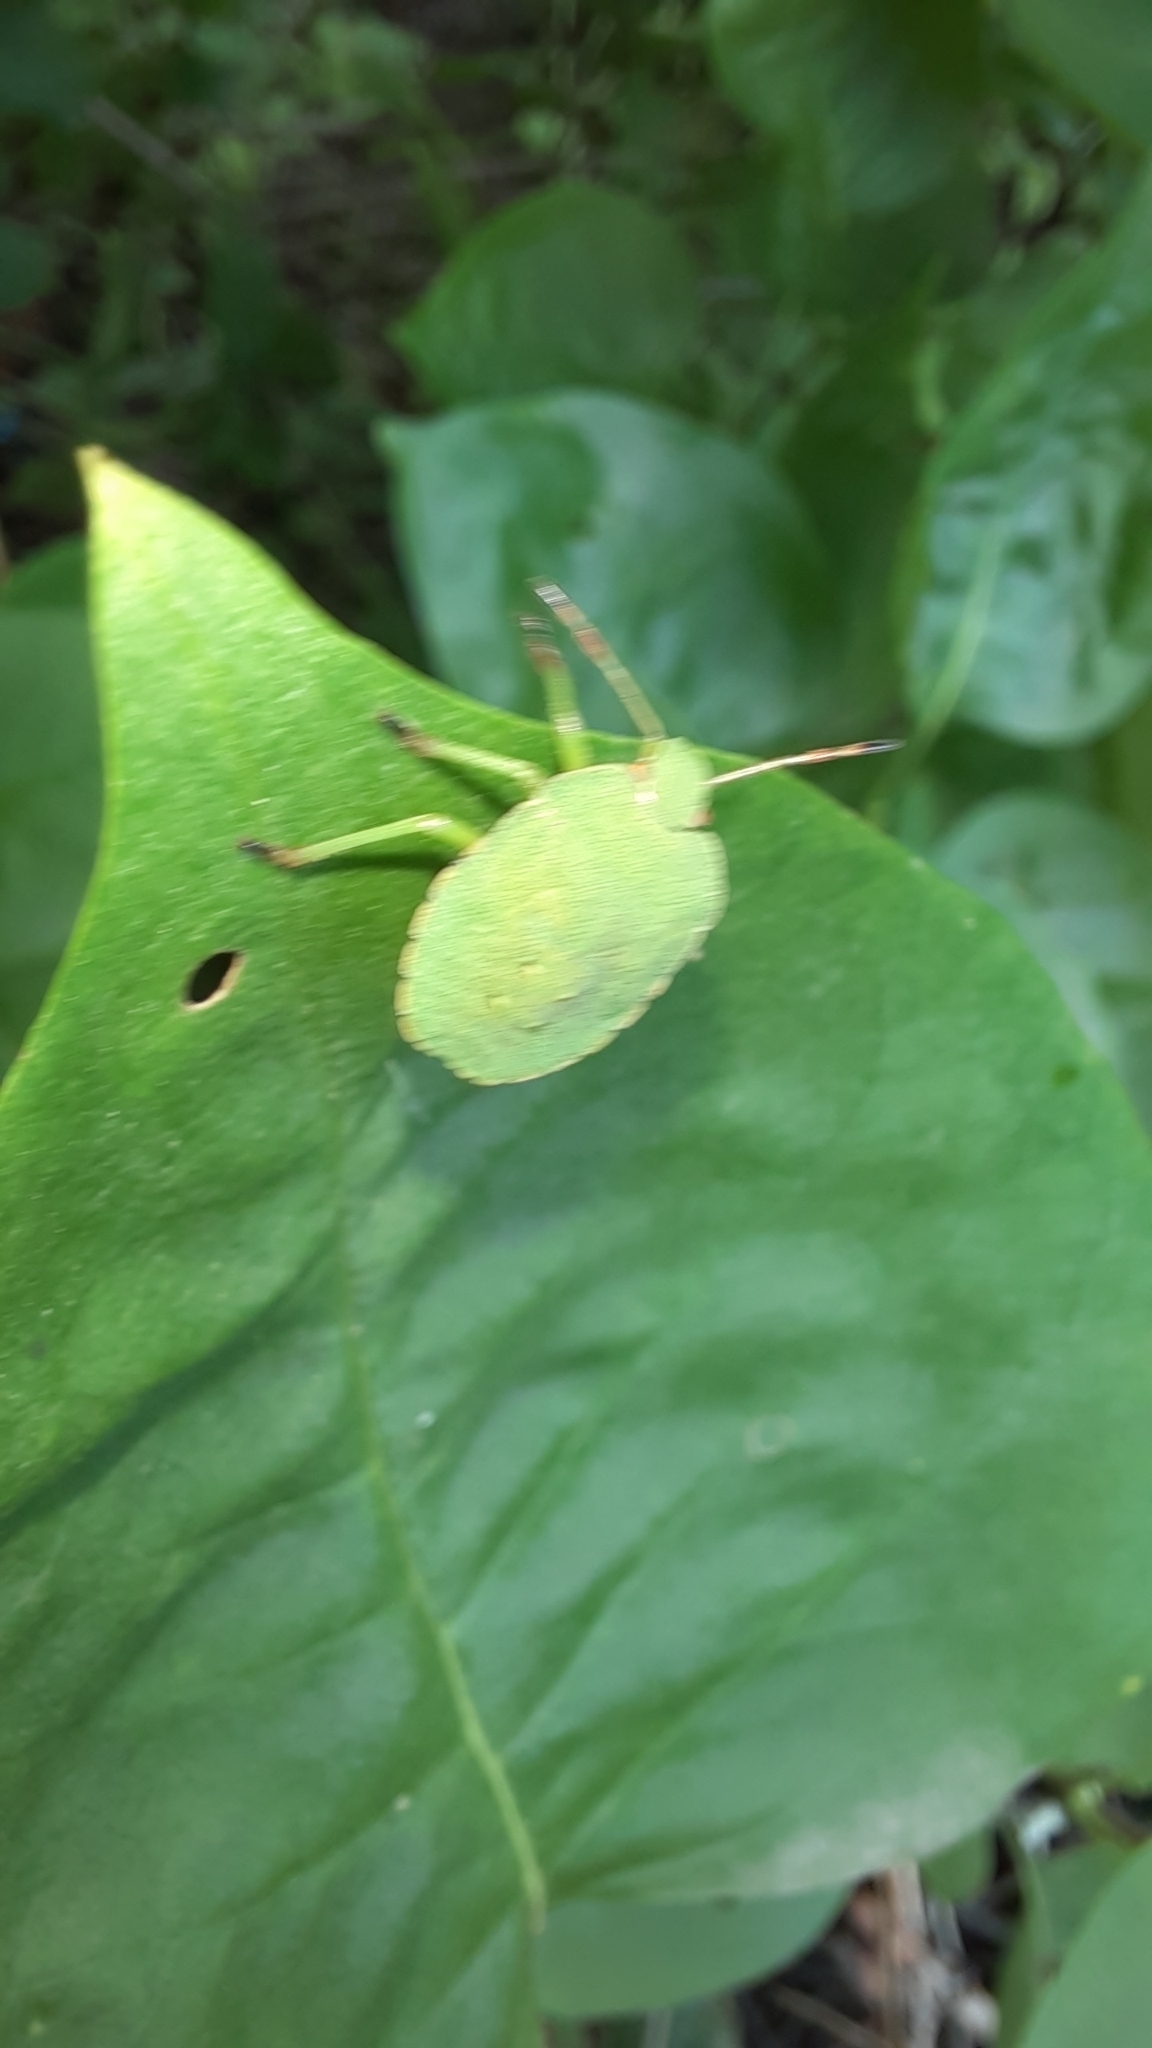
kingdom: Animalia
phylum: Arthropoda
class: Insecta
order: Hemiptera
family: Pentatomidae
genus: Palomena
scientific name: Palomena prasina
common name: Green shieldbug
